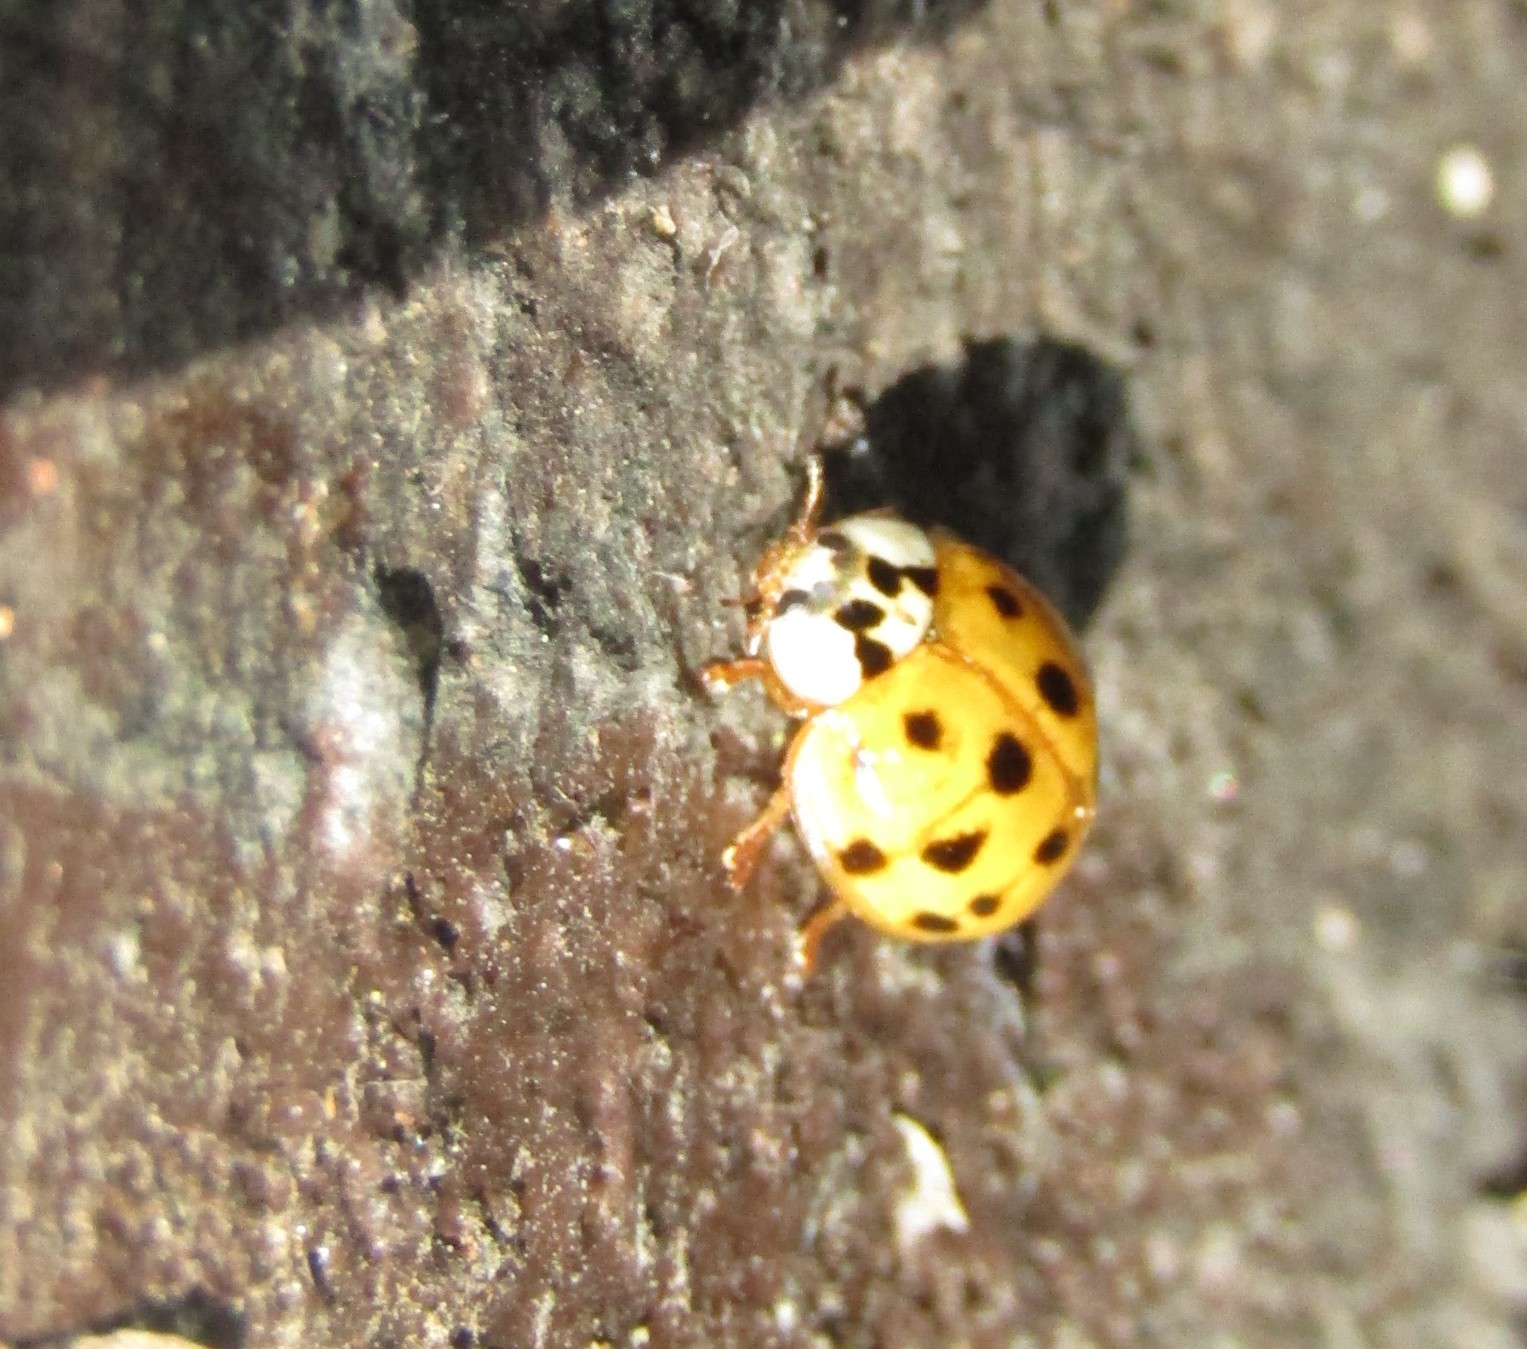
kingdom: Animalia
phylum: Arthropoda
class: Insecta
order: Coleoptera
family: Coccinellidae
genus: Harmonia
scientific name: Harmonia axyridis
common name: Harlequin ladybird
